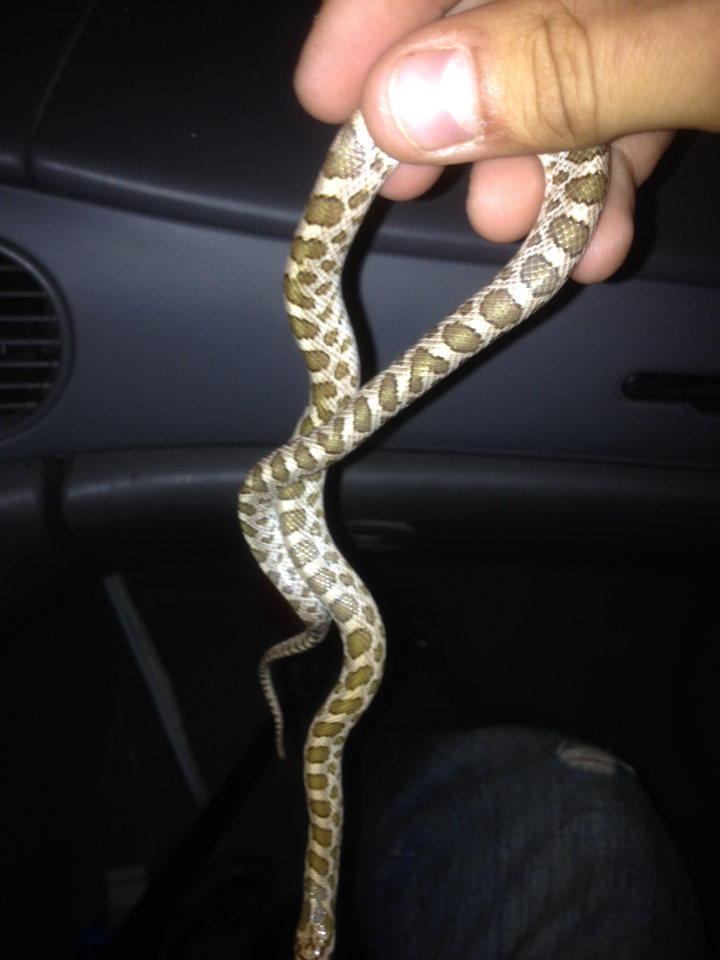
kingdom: Animalia
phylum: Chordata
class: Squamata
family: Colubridae
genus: Arizona
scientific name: Arizona elegans
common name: Glossy snake
